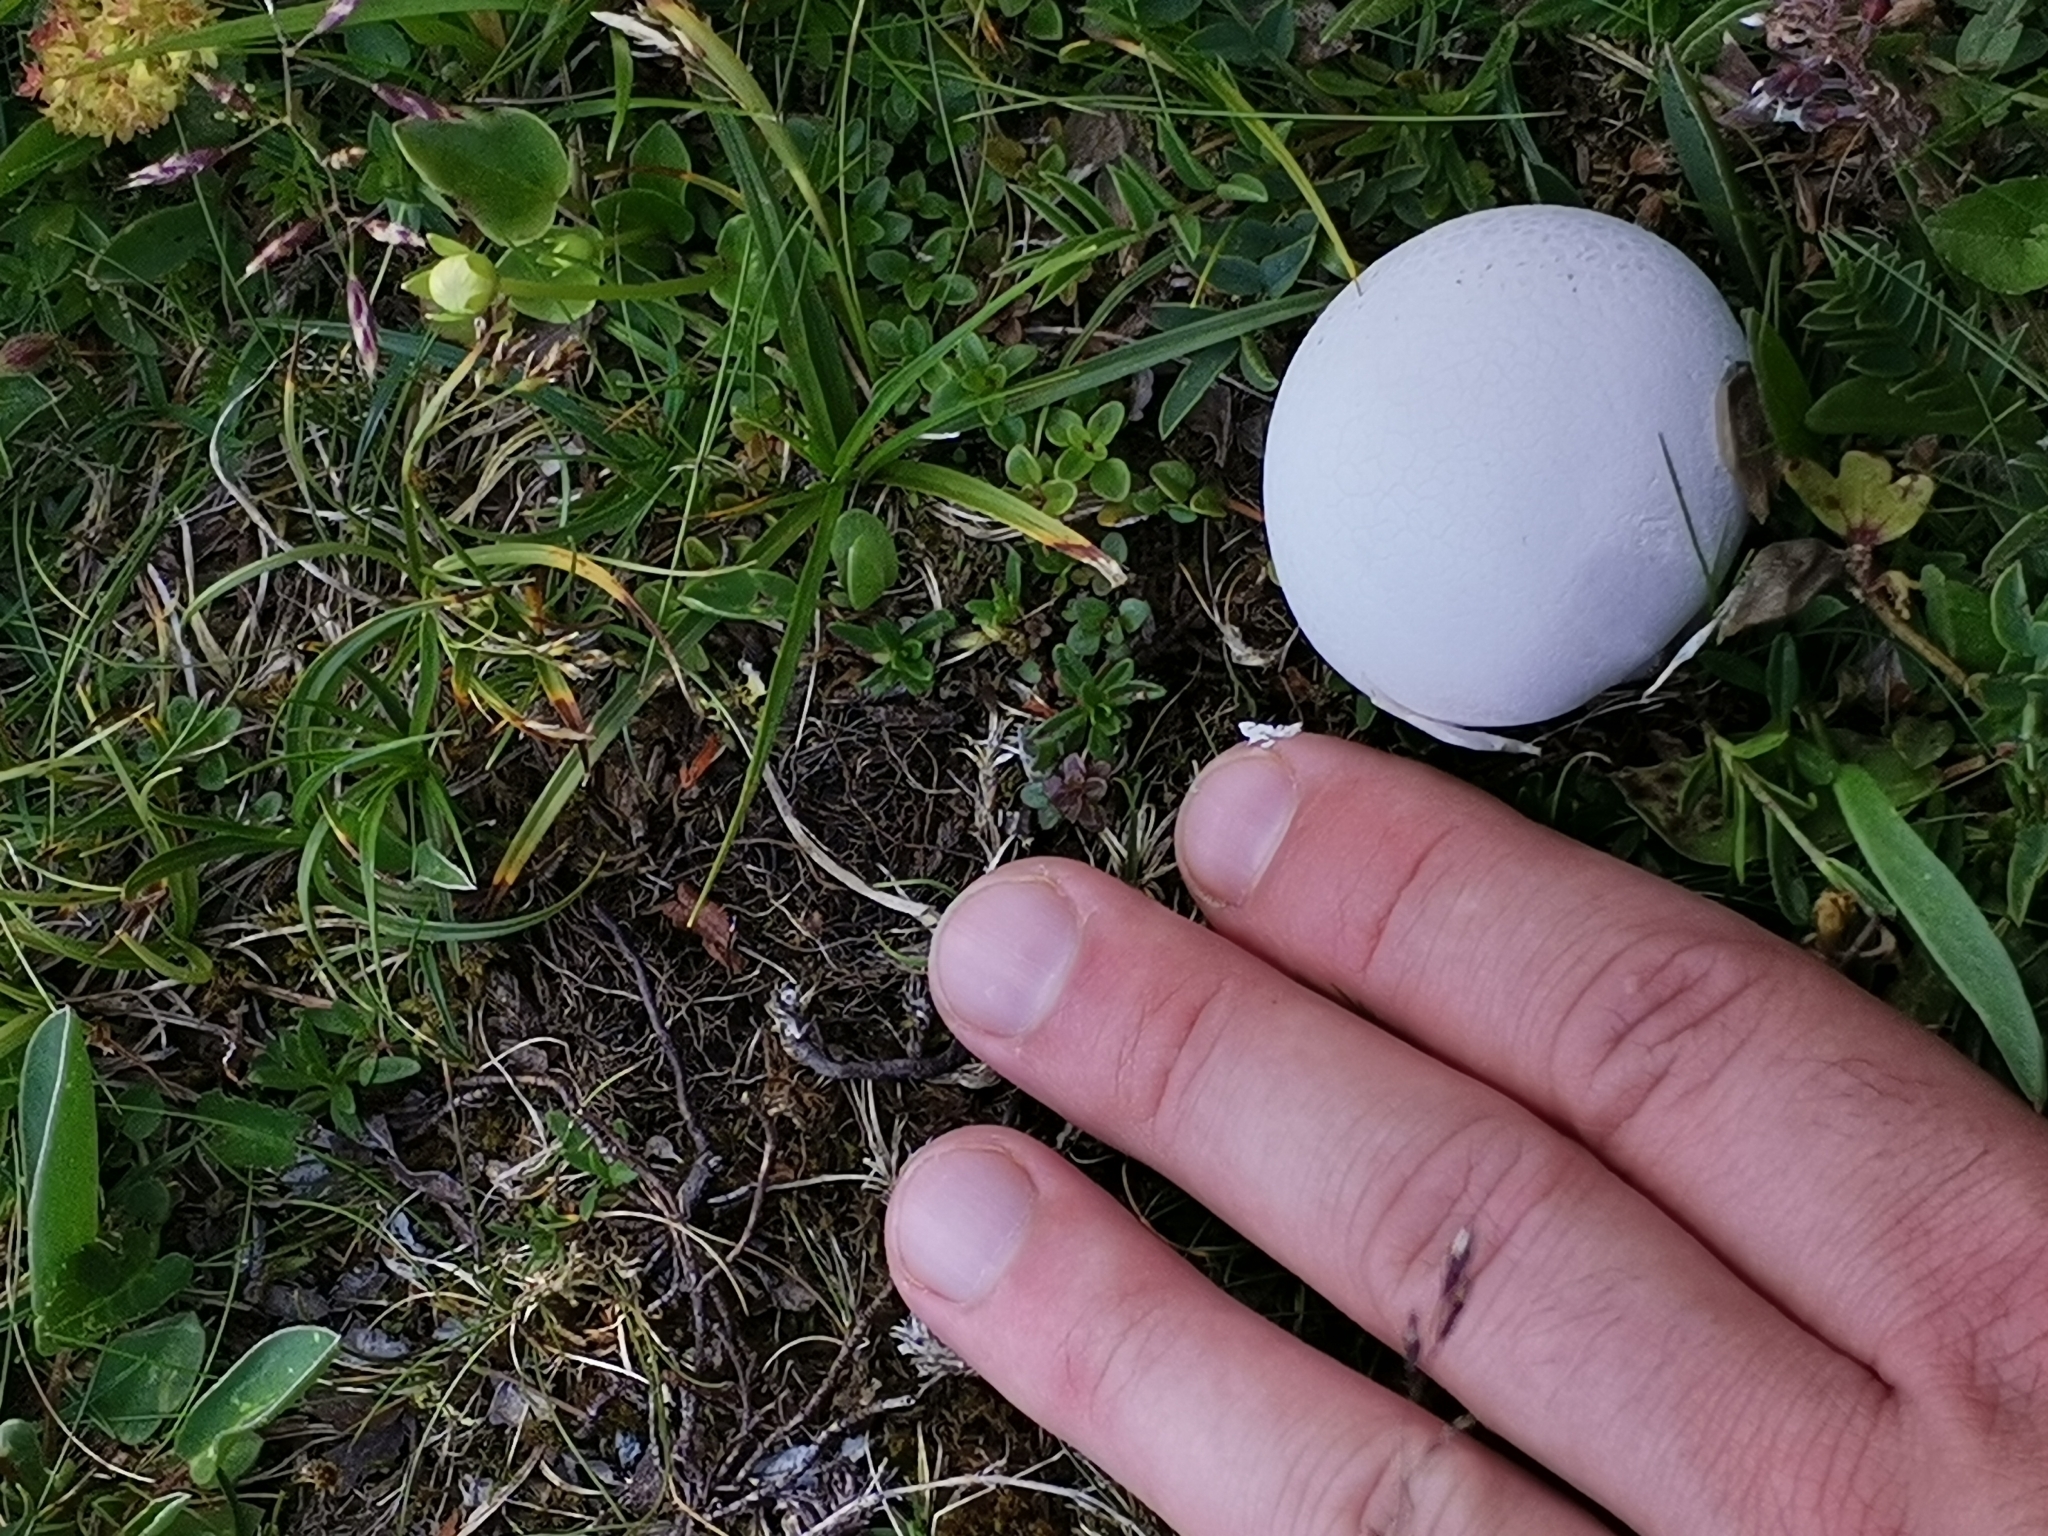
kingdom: Fungi
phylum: Basidiomycota
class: Agaricomycetes
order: Agaricales
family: Lycoperdaceae
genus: Bovistella
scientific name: Bovistella utriformis
